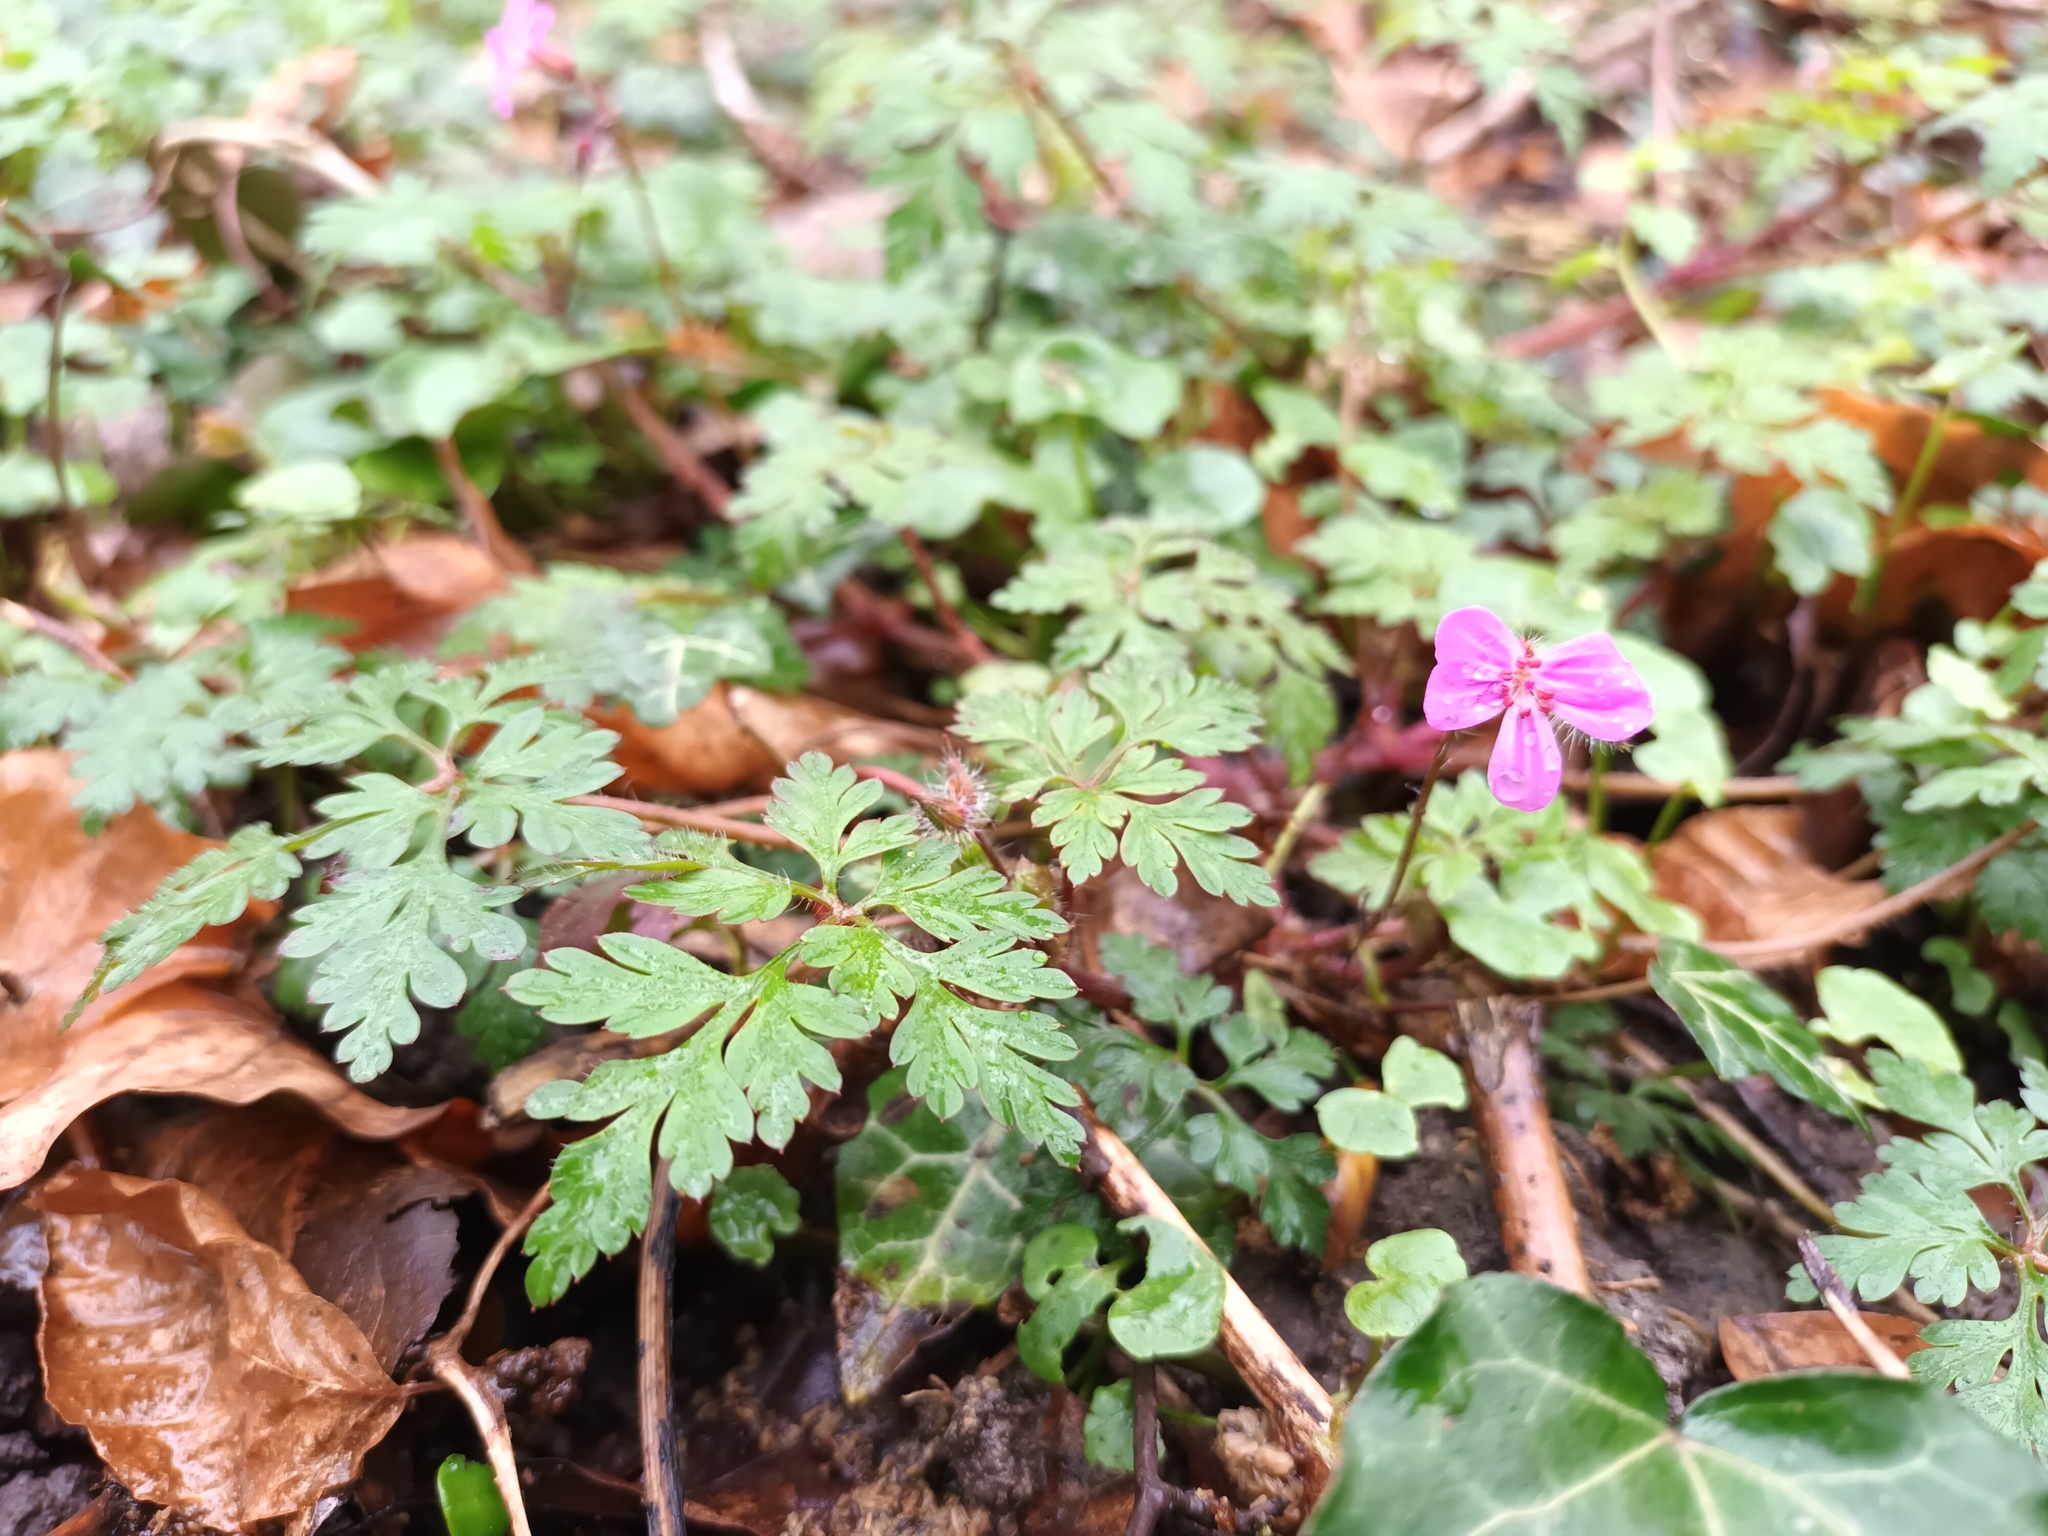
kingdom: Plantae
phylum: Tracheophyta
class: Magnoliopsida
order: Geraniales
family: Geraniaceae
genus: Geranium
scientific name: Geranium robertianum
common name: Herb-robert
